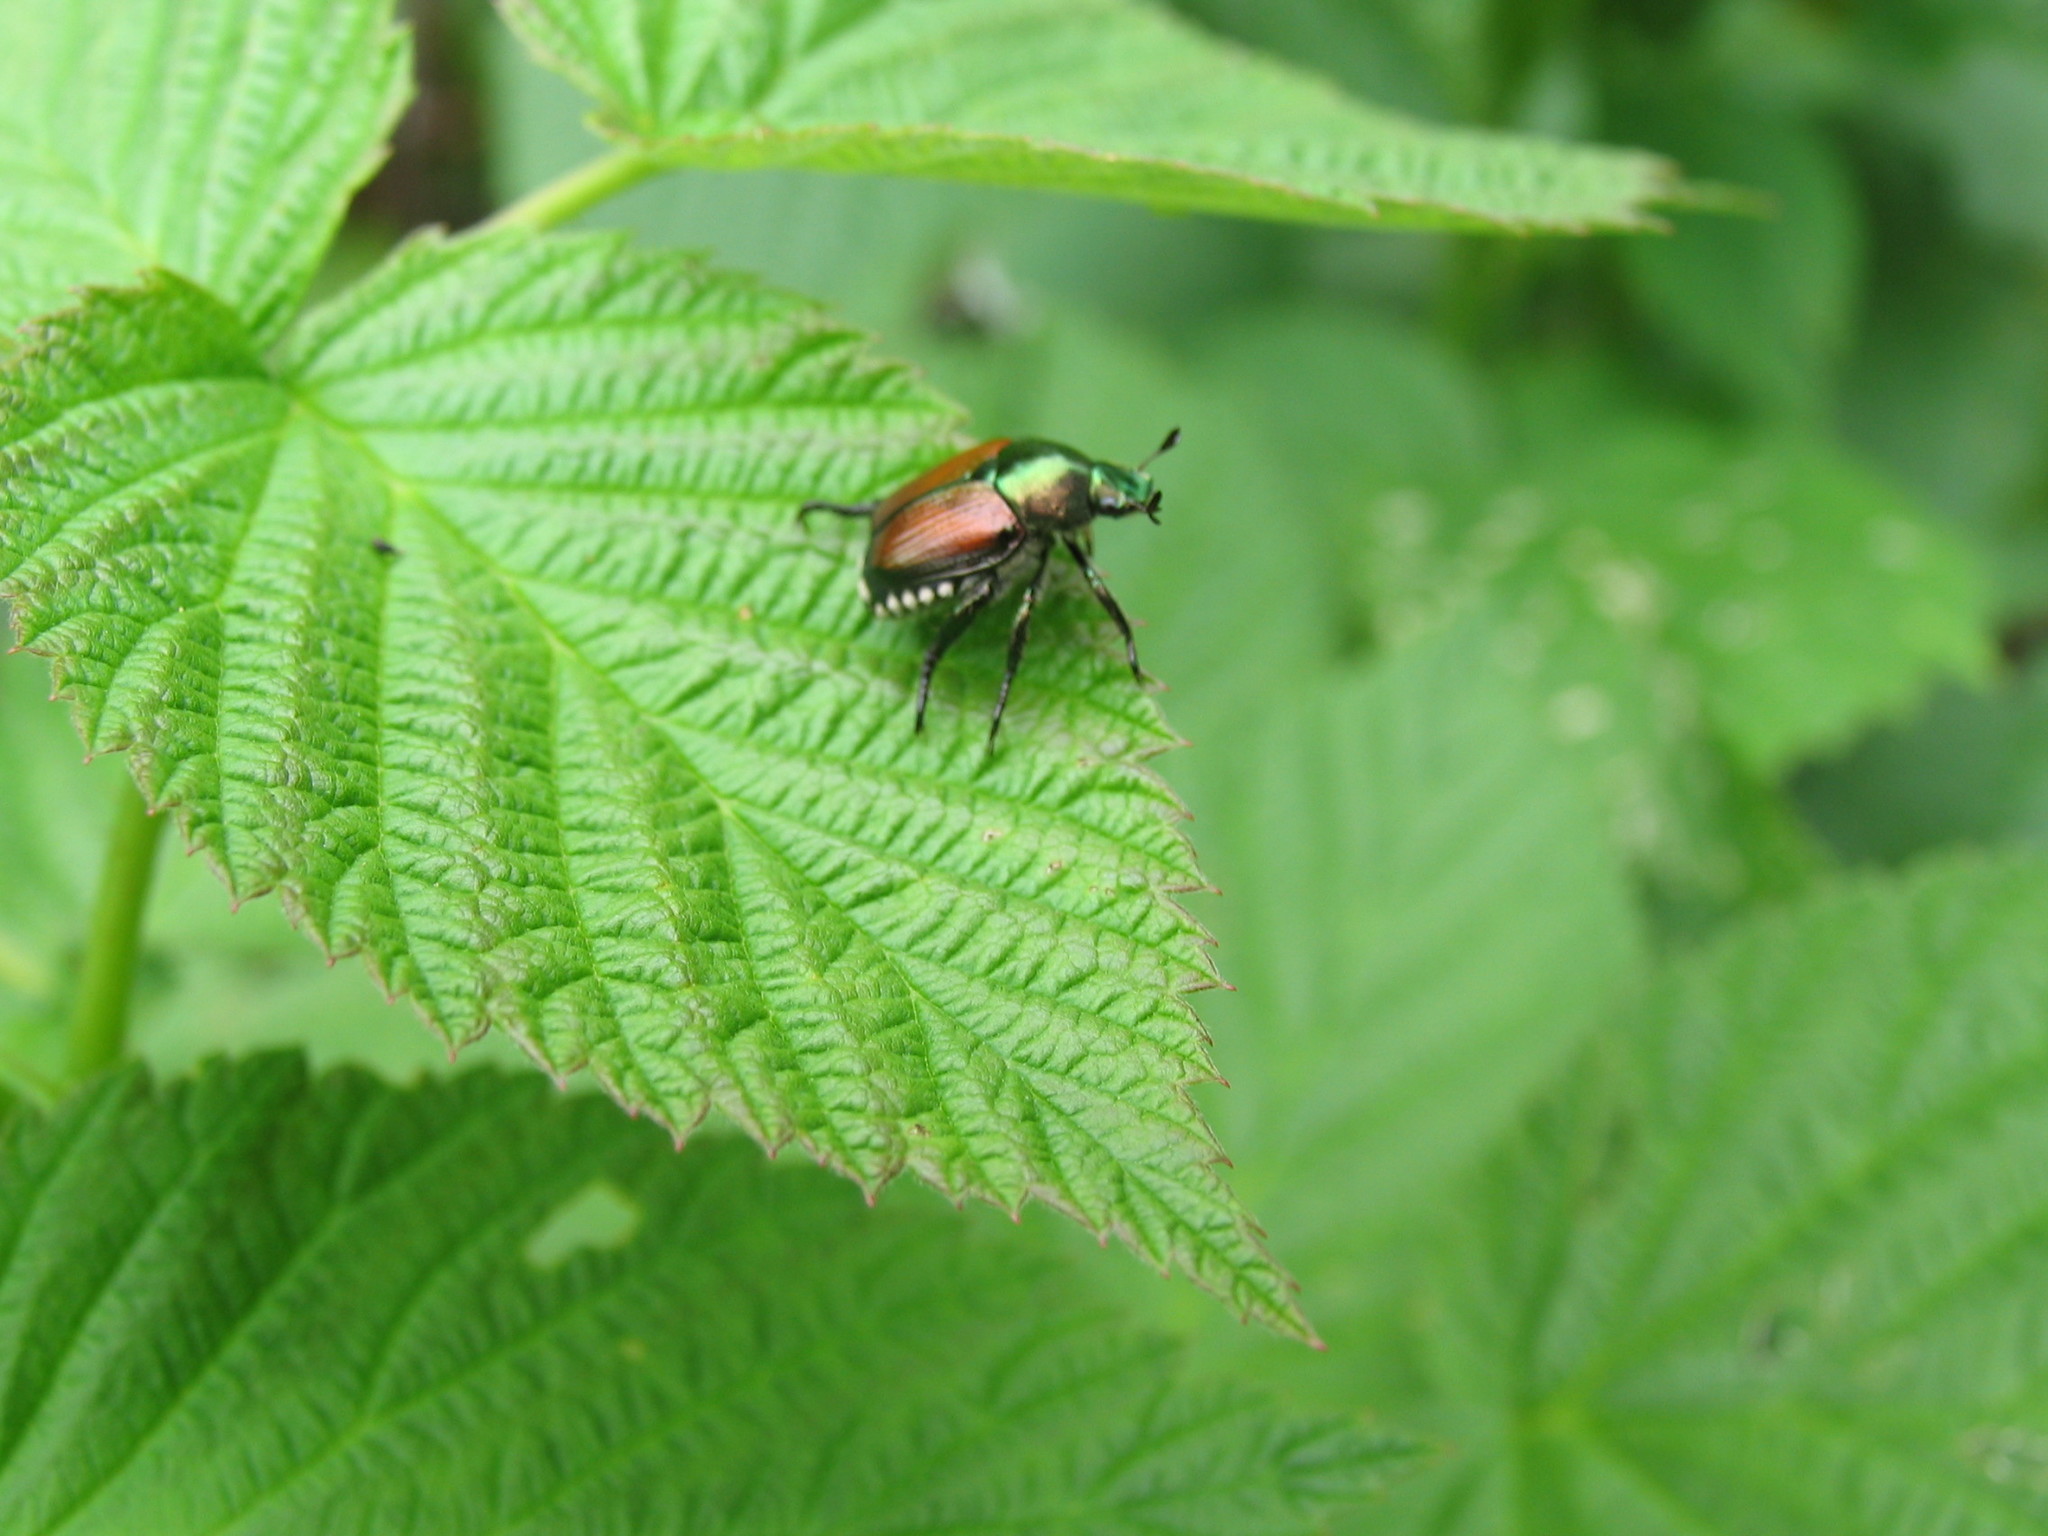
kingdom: Animalia
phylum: Arthropoda
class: Insecta
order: Coleoptera
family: Scarabaeidae
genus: Popillia
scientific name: Popillia japonica
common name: Japanese beetle
